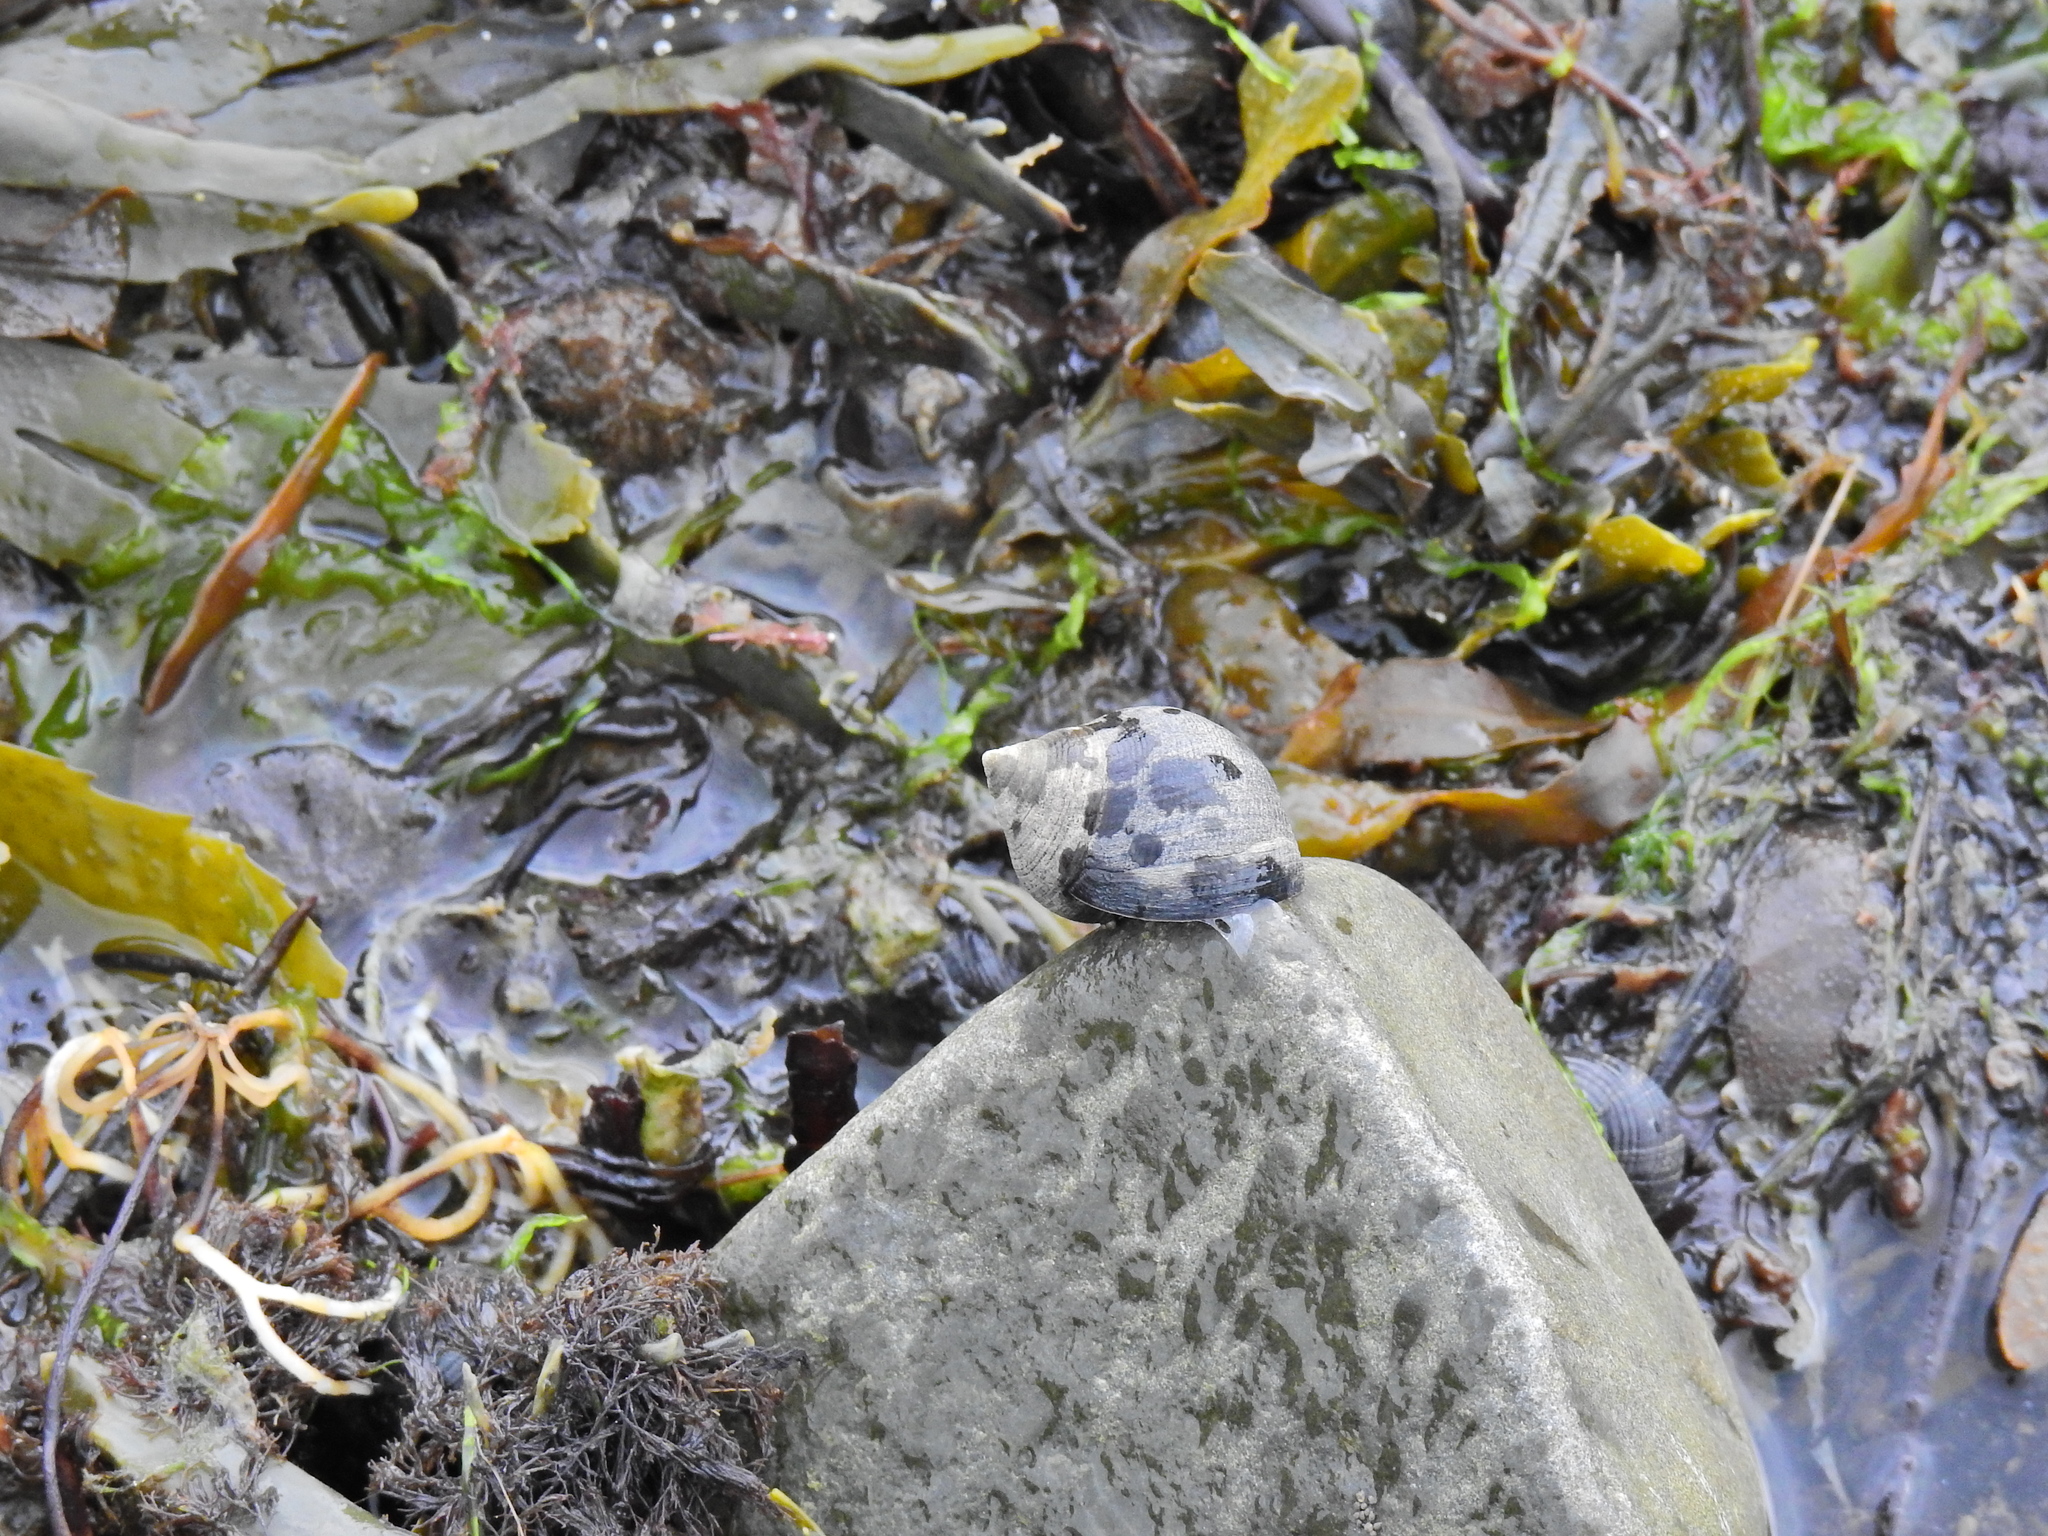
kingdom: Animalia
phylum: Mollusca
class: Gastropoda
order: Littorinimorpha
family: Littorinidae
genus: Littorina
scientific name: Littorina littorea
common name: Common periwinkle
